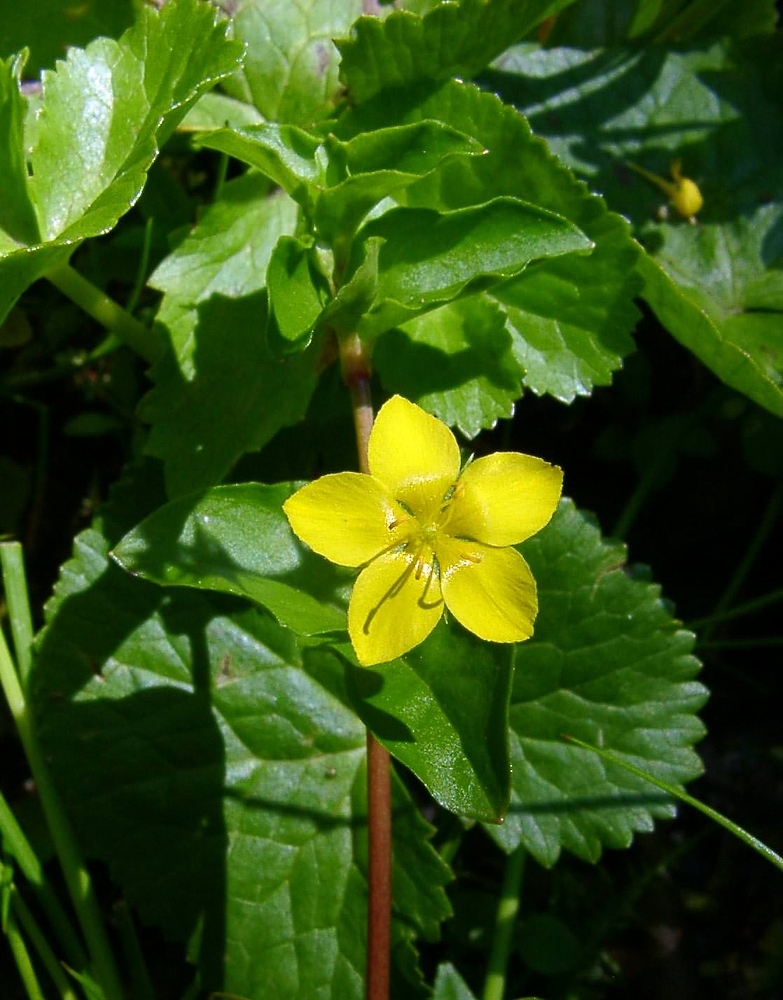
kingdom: Plantae
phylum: Tracheophyta
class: Magnoliopsida
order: Ericales
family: Primulaceae
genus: Lysimachia
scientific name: Lysimachia nemorum
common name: Yellow pimpernel
